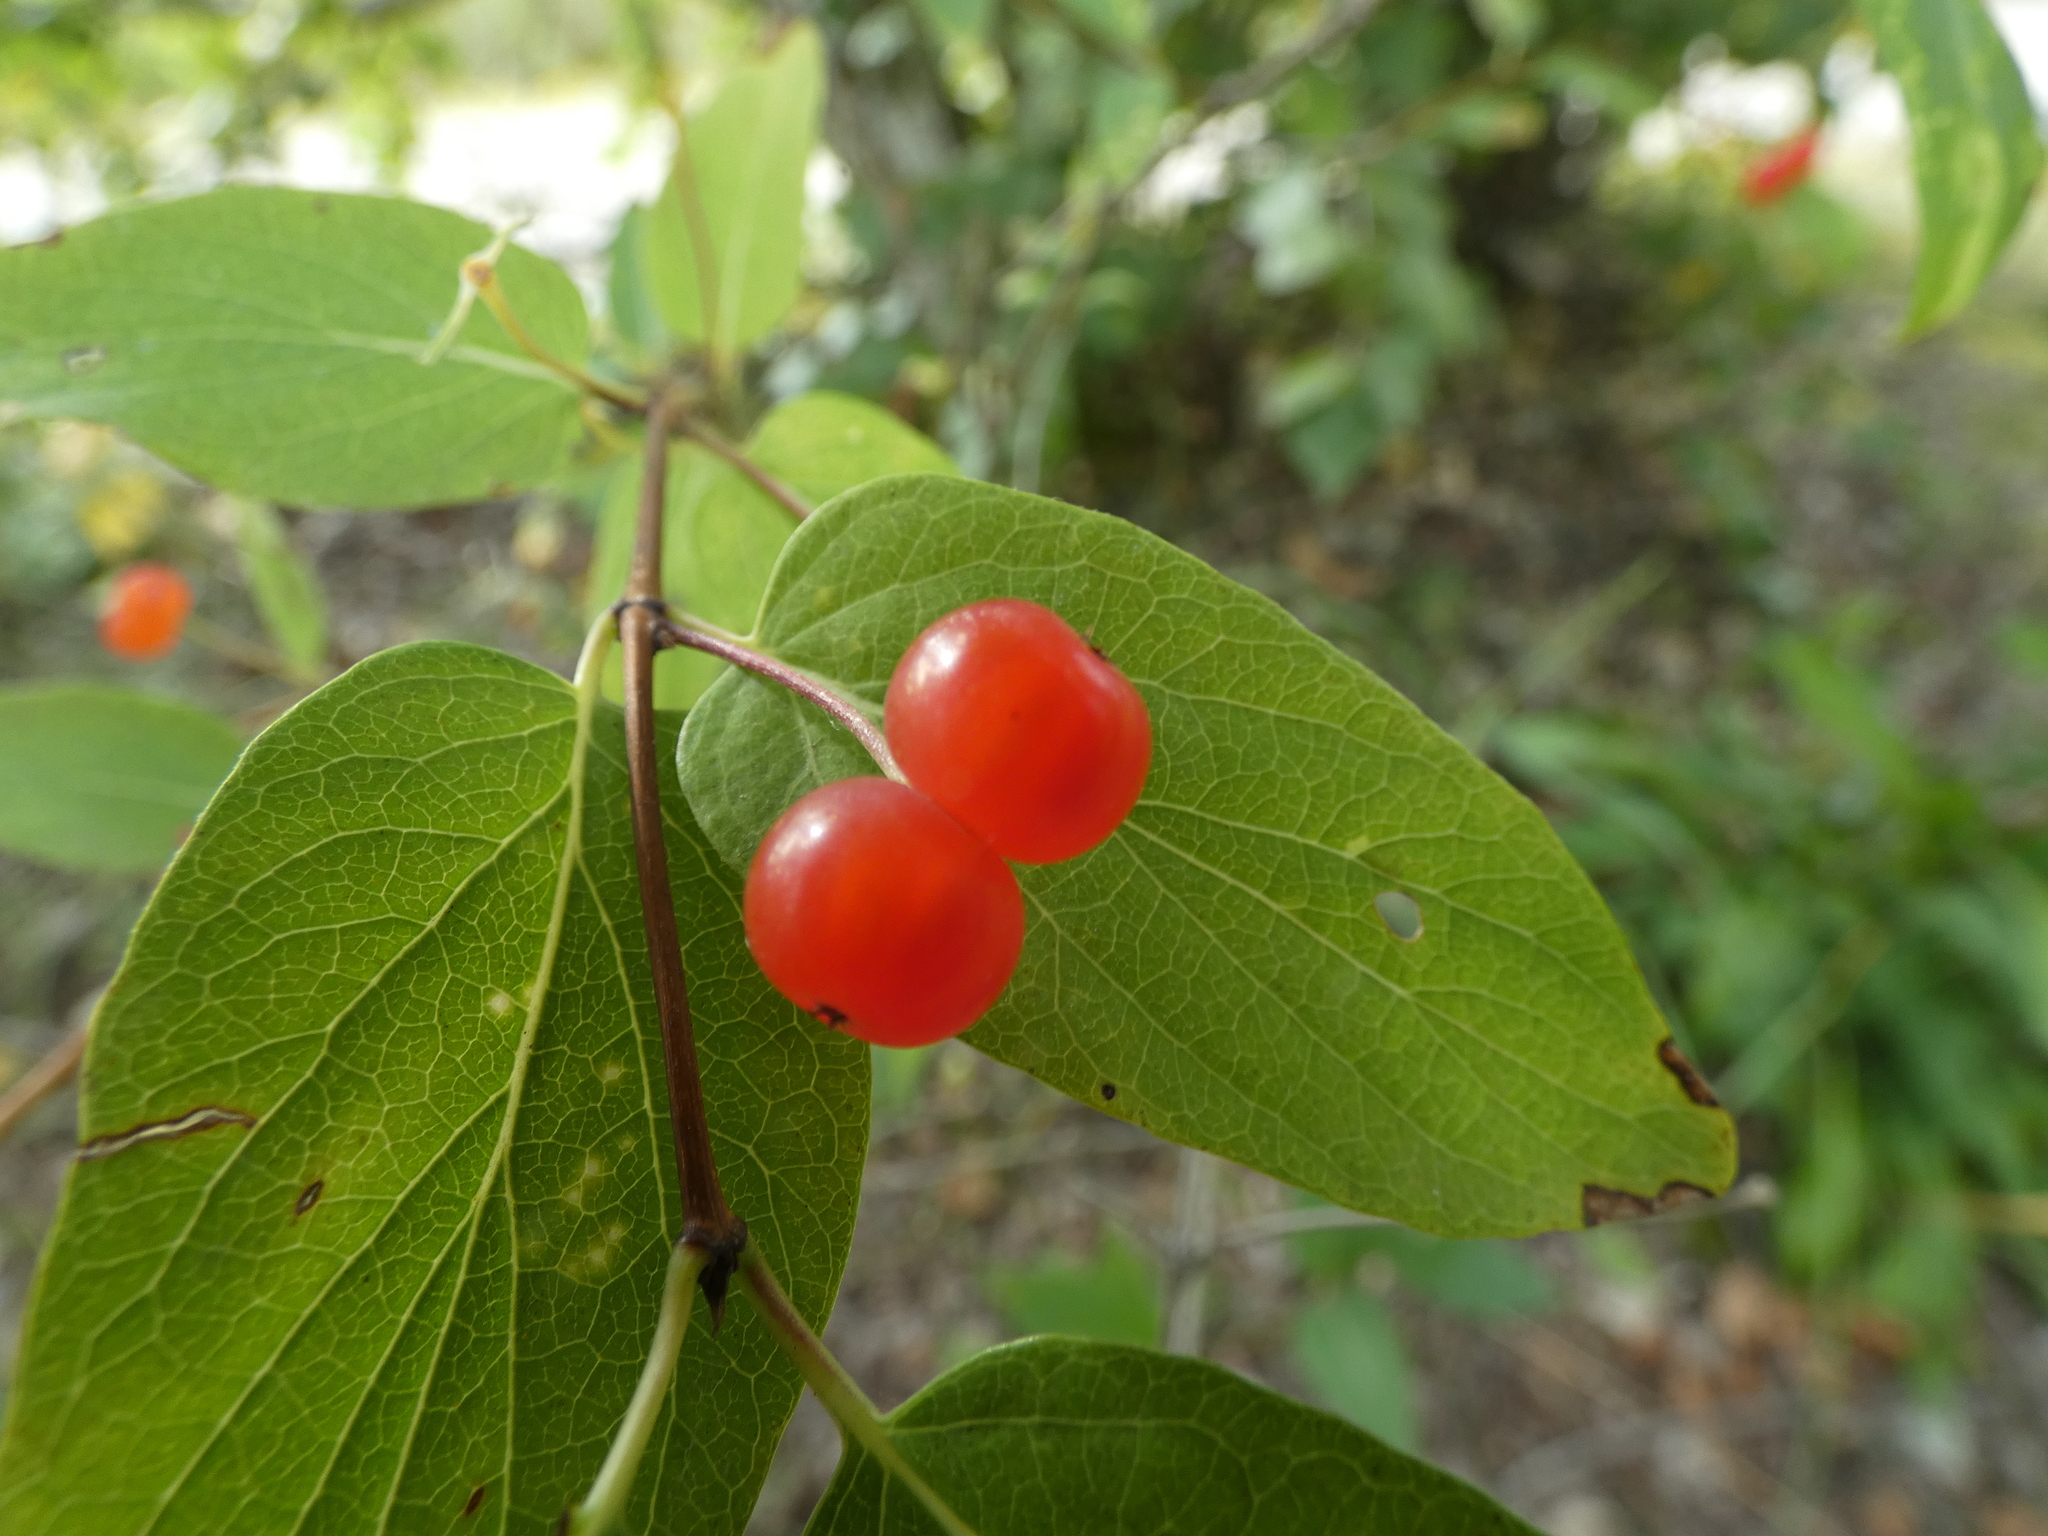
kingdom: Plantae
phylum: Tracheophyta
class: Magnoliopsida
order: Dipsacales
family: Caprifoliaceae
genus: Lonicera
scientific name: Lonicera tatarica
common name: Tatarian honeysuckle
